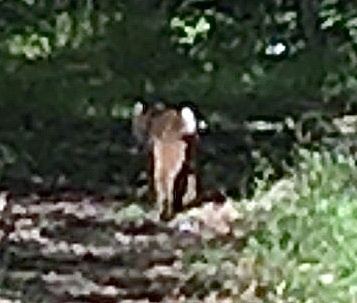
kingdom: Animalia
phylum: Chordata
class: Mammalia
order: Carnivora
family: Felidae
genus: Lynx
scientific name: Lynx rufus
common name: Bobcat
